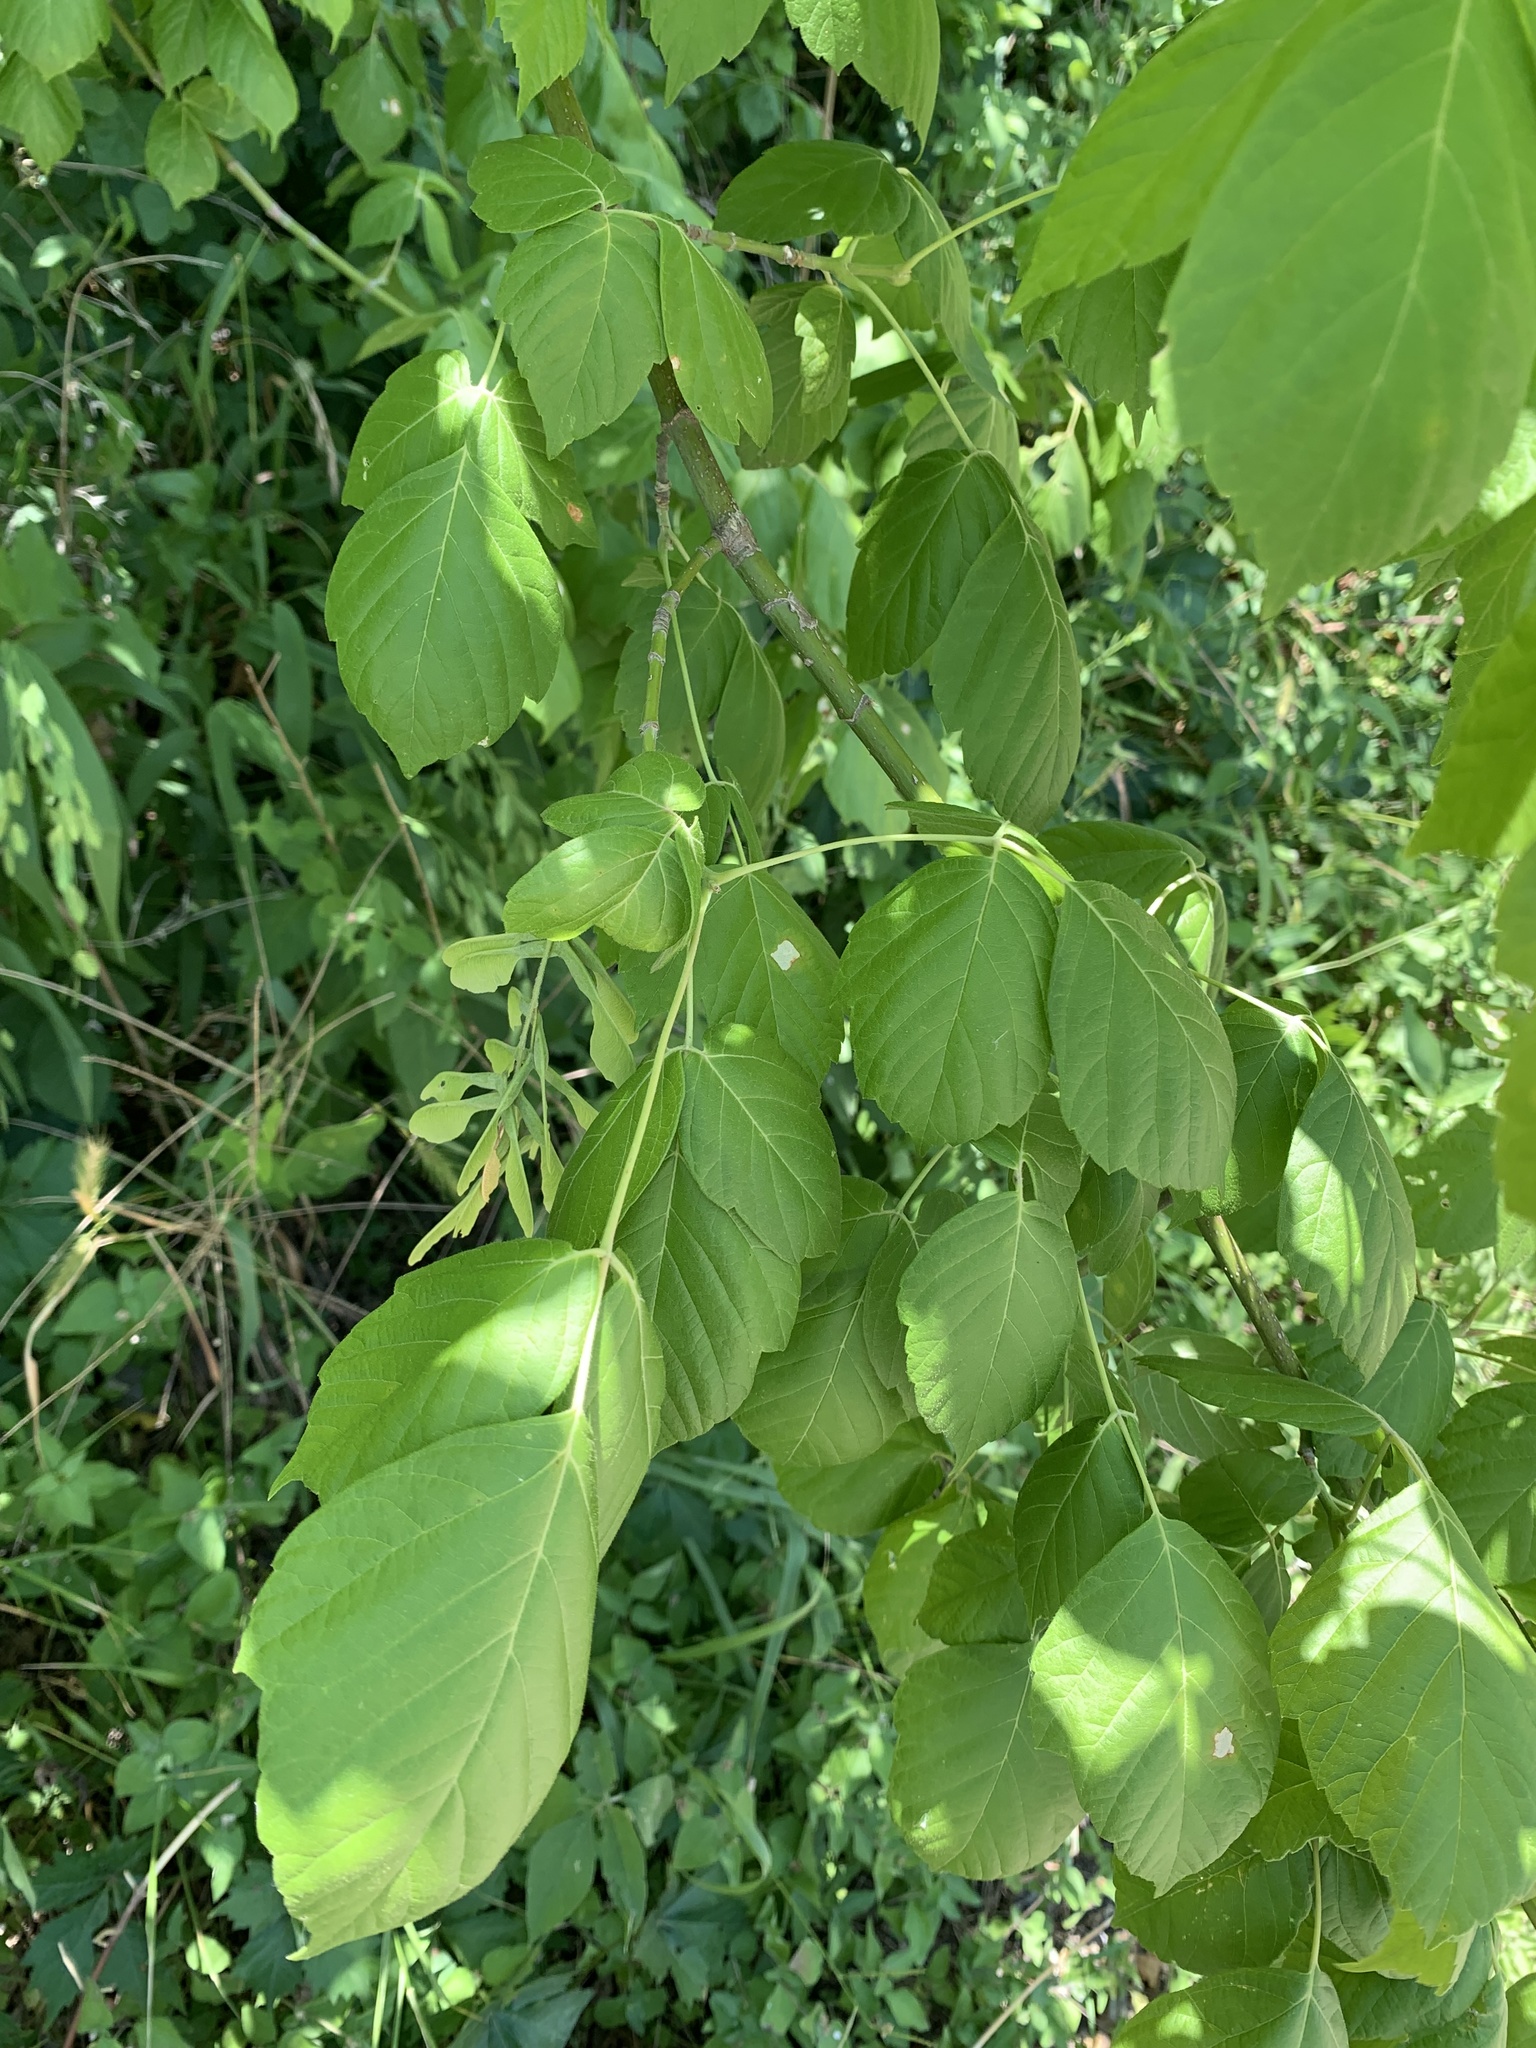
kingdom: Plantae
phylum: Tracheophyta
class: Magnoliopsida
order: Sapindales
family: Sapindaceae
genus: Acer
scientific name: Acer negundo
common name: Ashleaf maple
